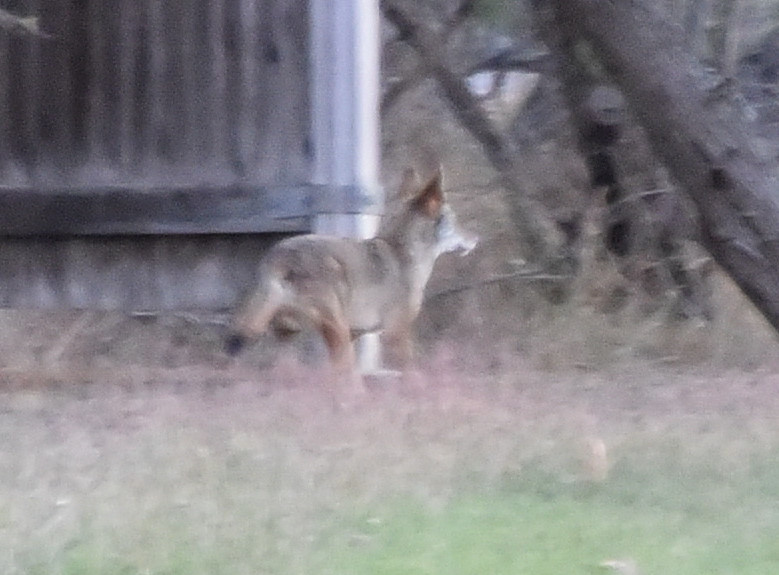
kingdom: Animalia
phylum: Chordata
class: Mammalia
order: Carnivora
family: Canidae
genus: Canis
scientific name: Canis latrans
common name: Coyote
